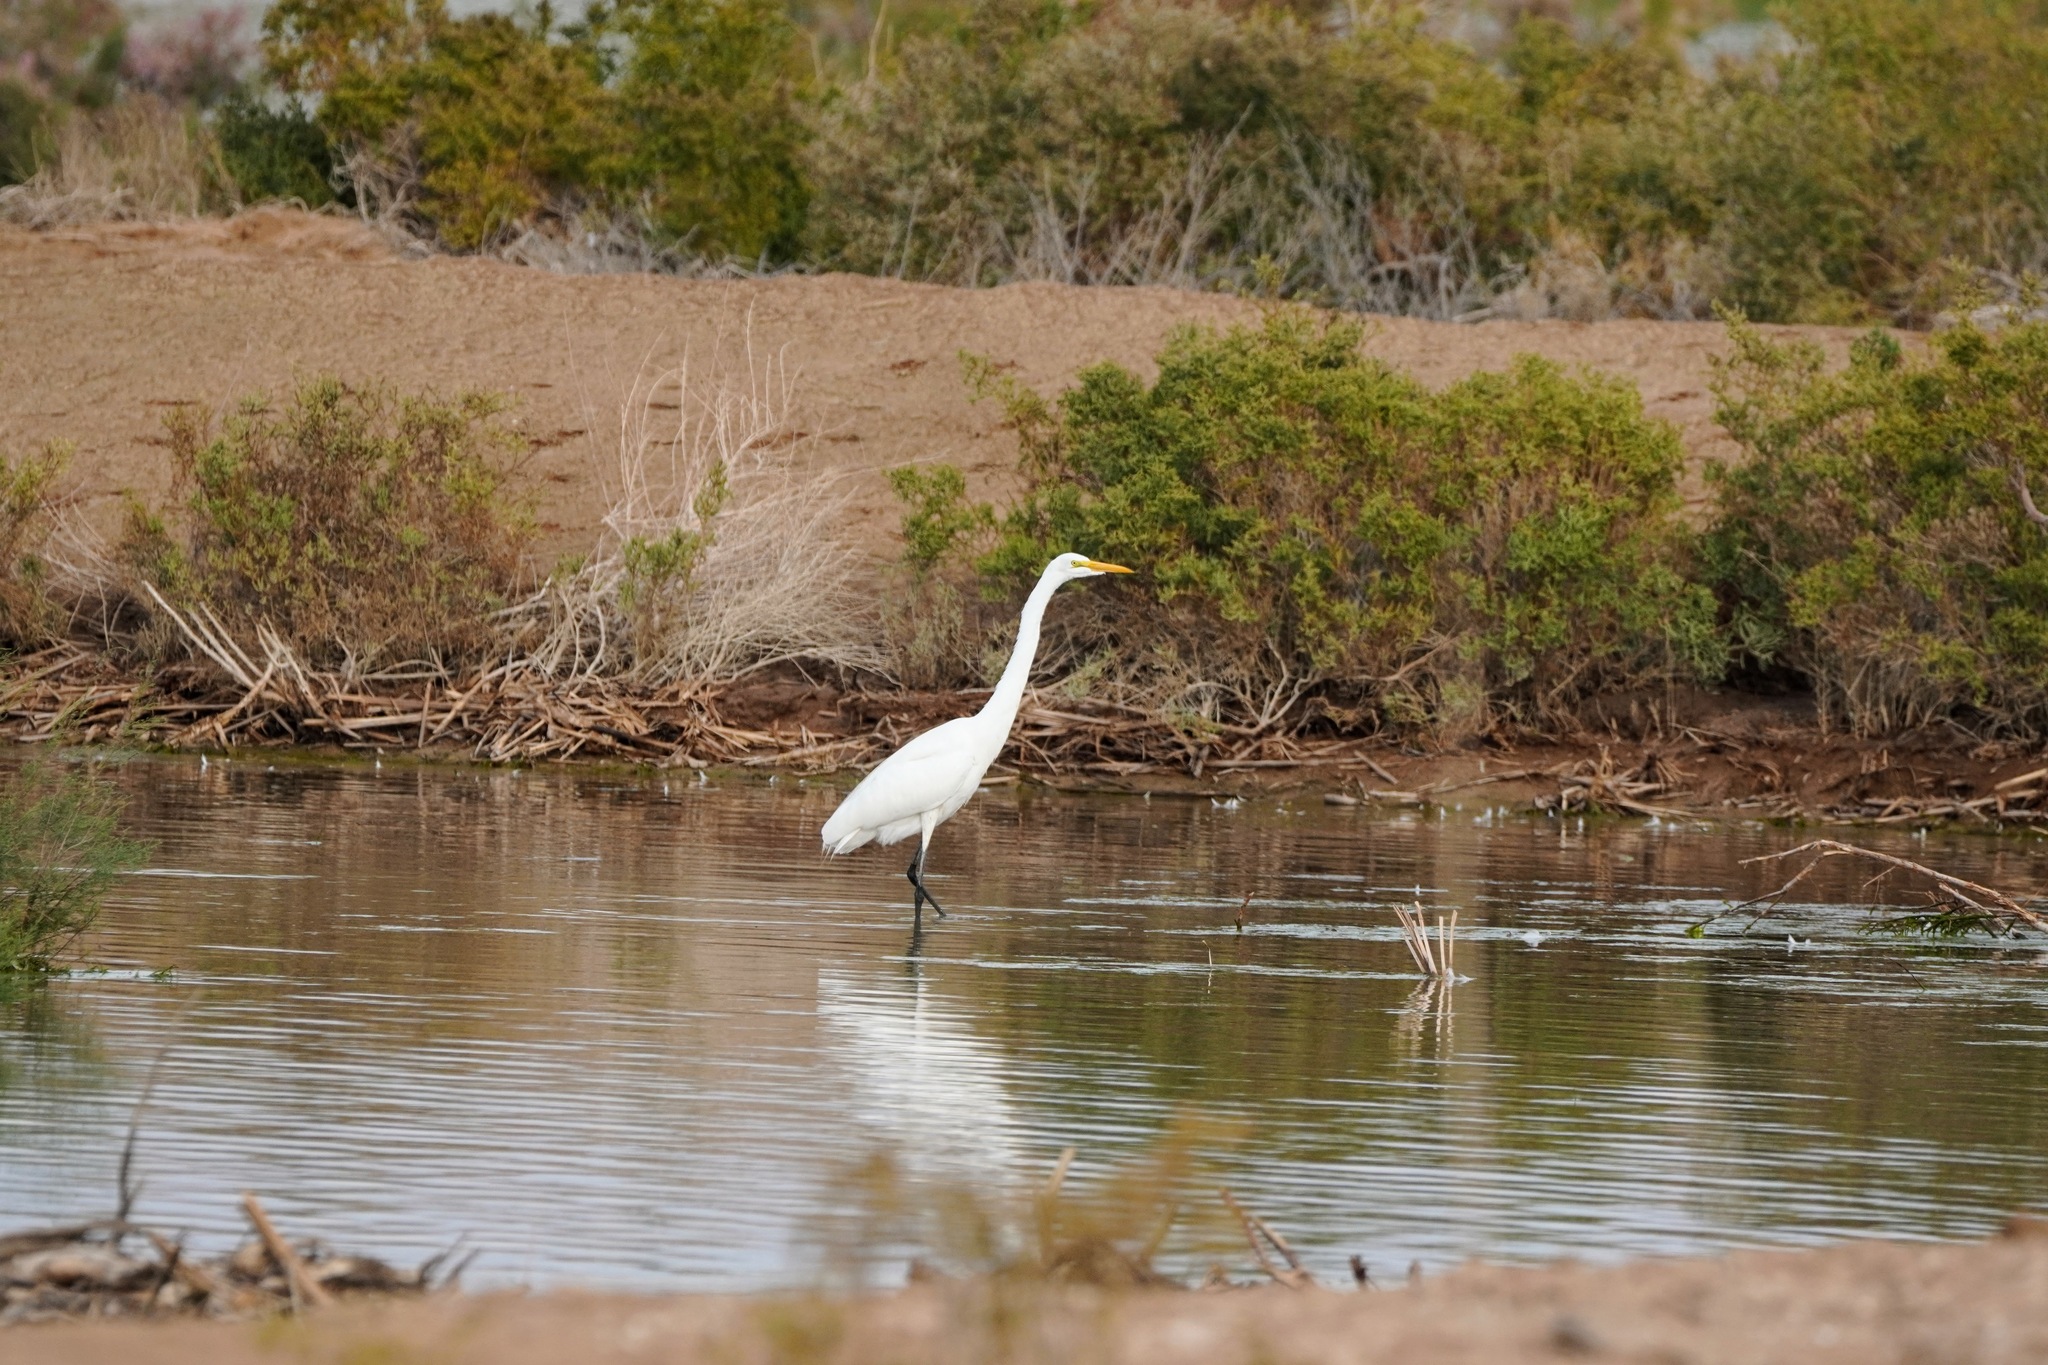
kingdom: Animalia
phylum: Chordata
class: Aves
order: Pelecaniformes
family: Ardeidae
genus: Ardea
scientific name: Ardea alba
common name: Great egret
